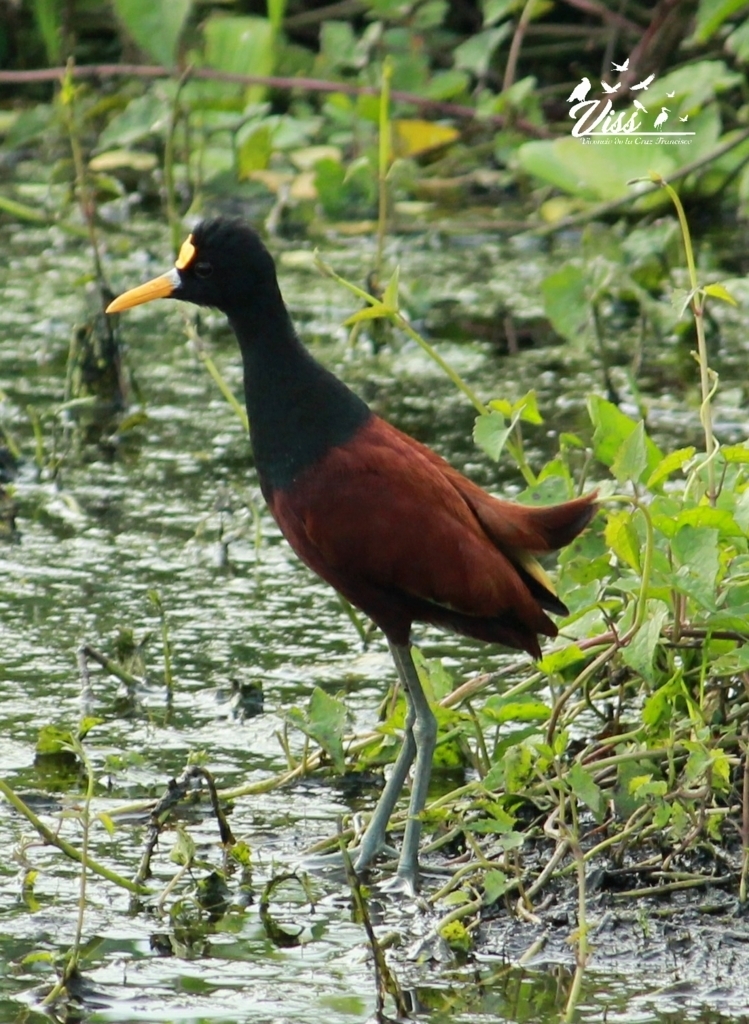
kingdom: Animalia
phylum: Chordata
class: Aves
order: Charadriiformes
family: Jacanidae
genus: Jacana
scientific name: Jacana spinosa
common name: Northern jacana
